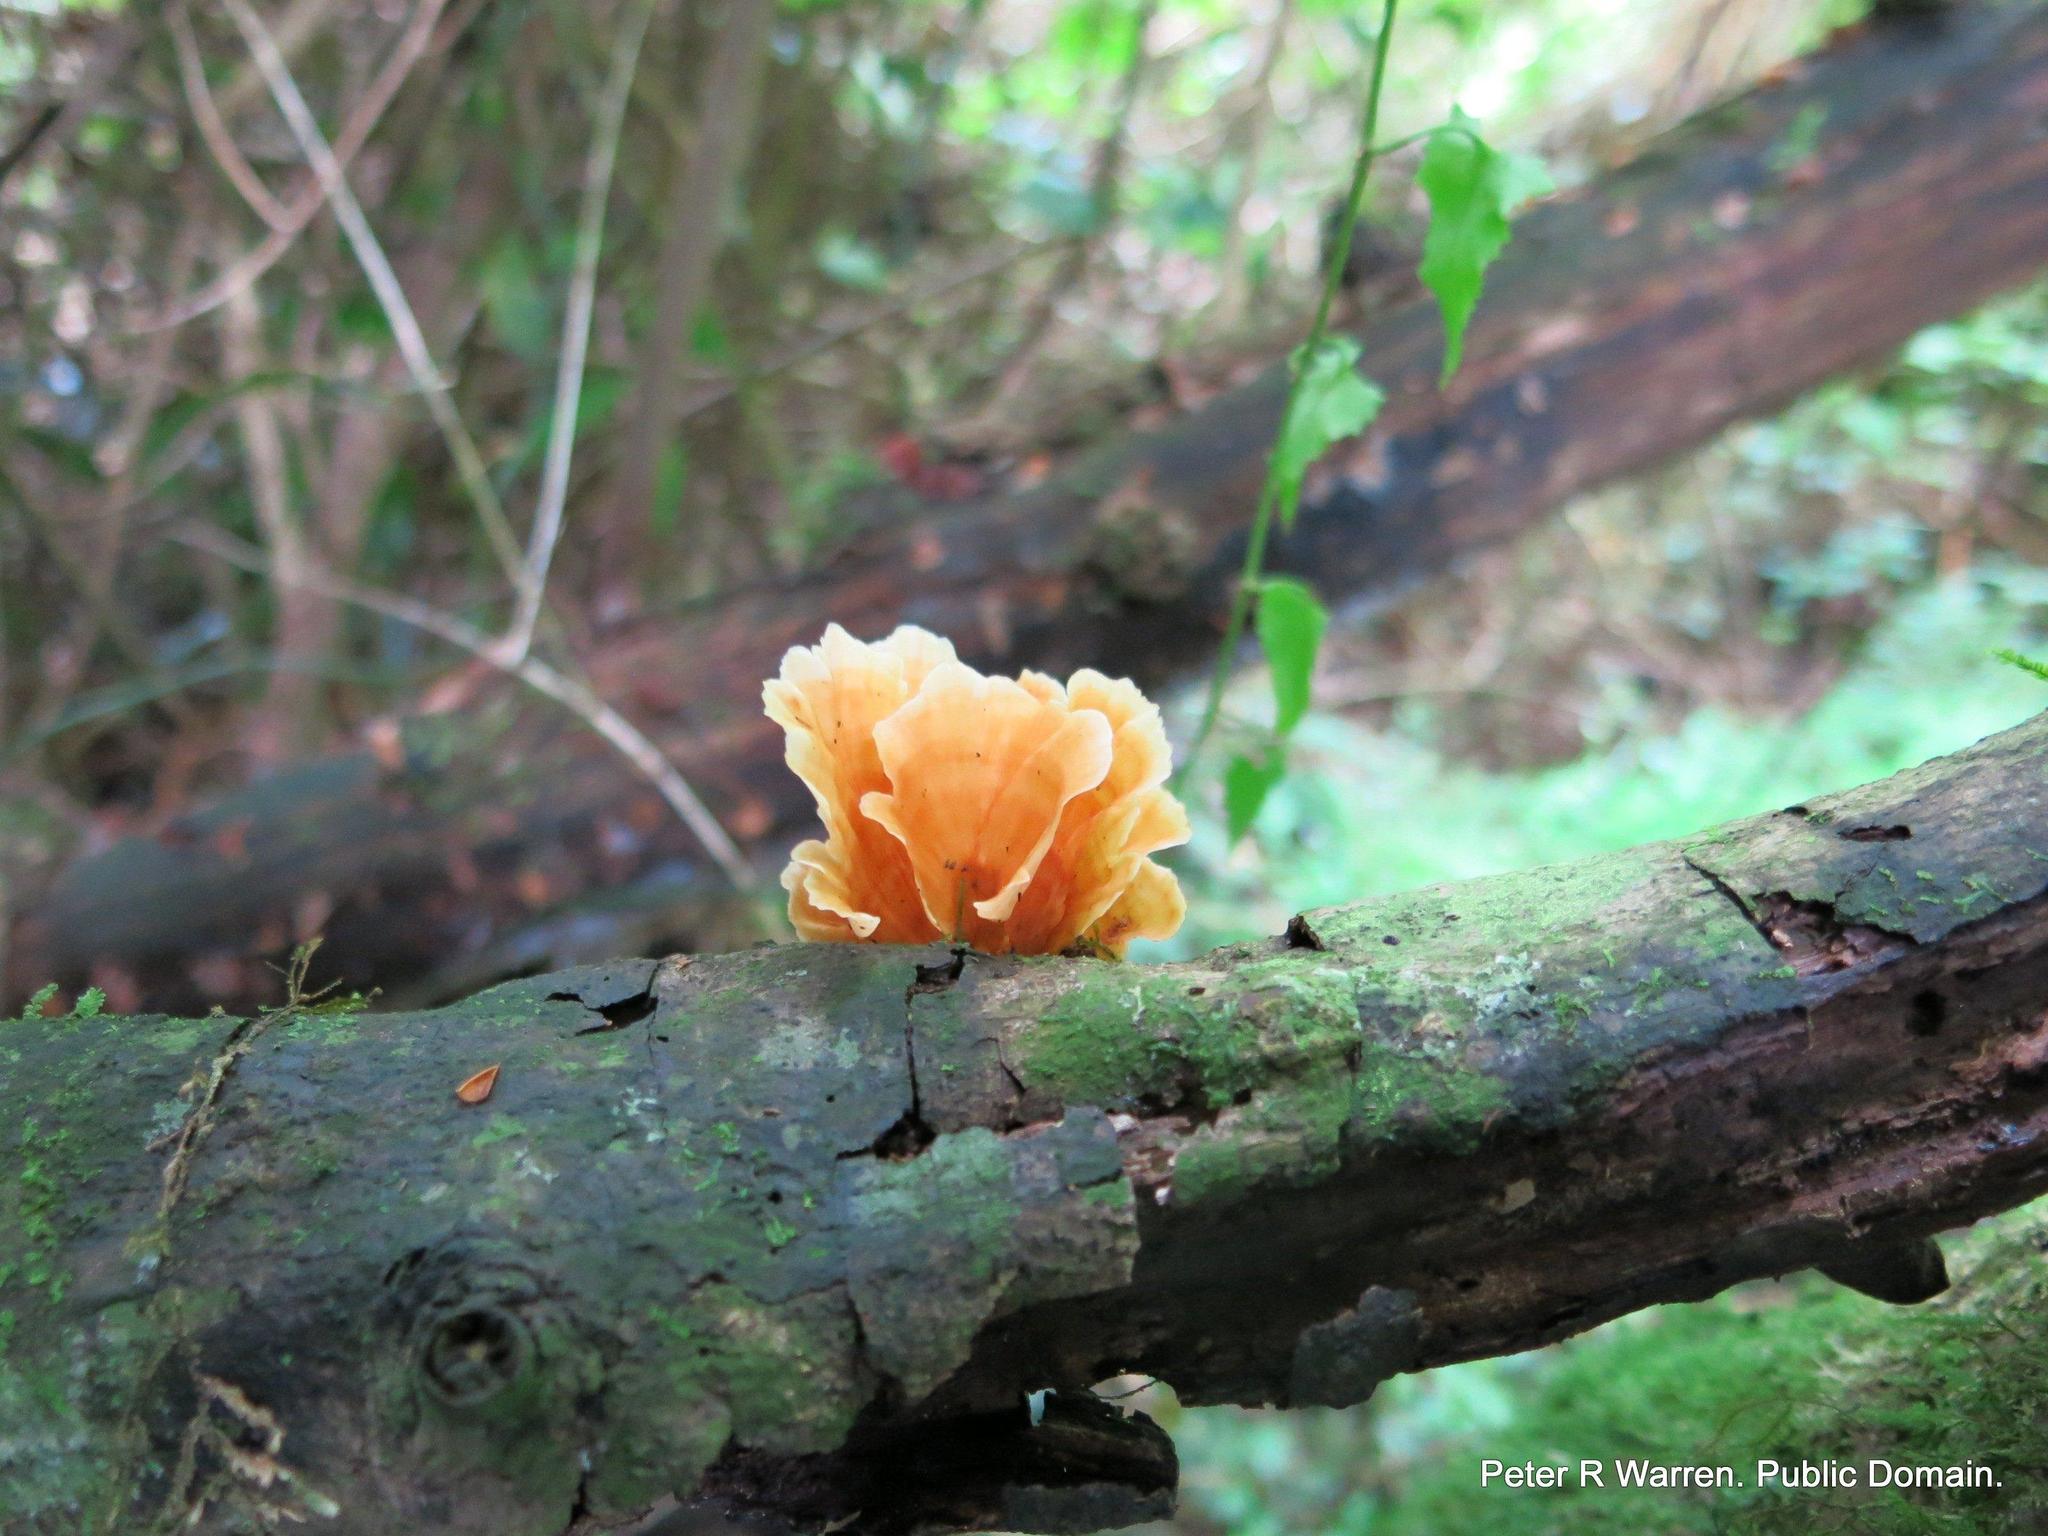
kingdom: Fungi
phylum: Basidiomycota
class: Agaricomycetes
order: Polyporales
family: Podoscyphaceae
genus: Podoscypha
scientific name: Podoscypha parvula
